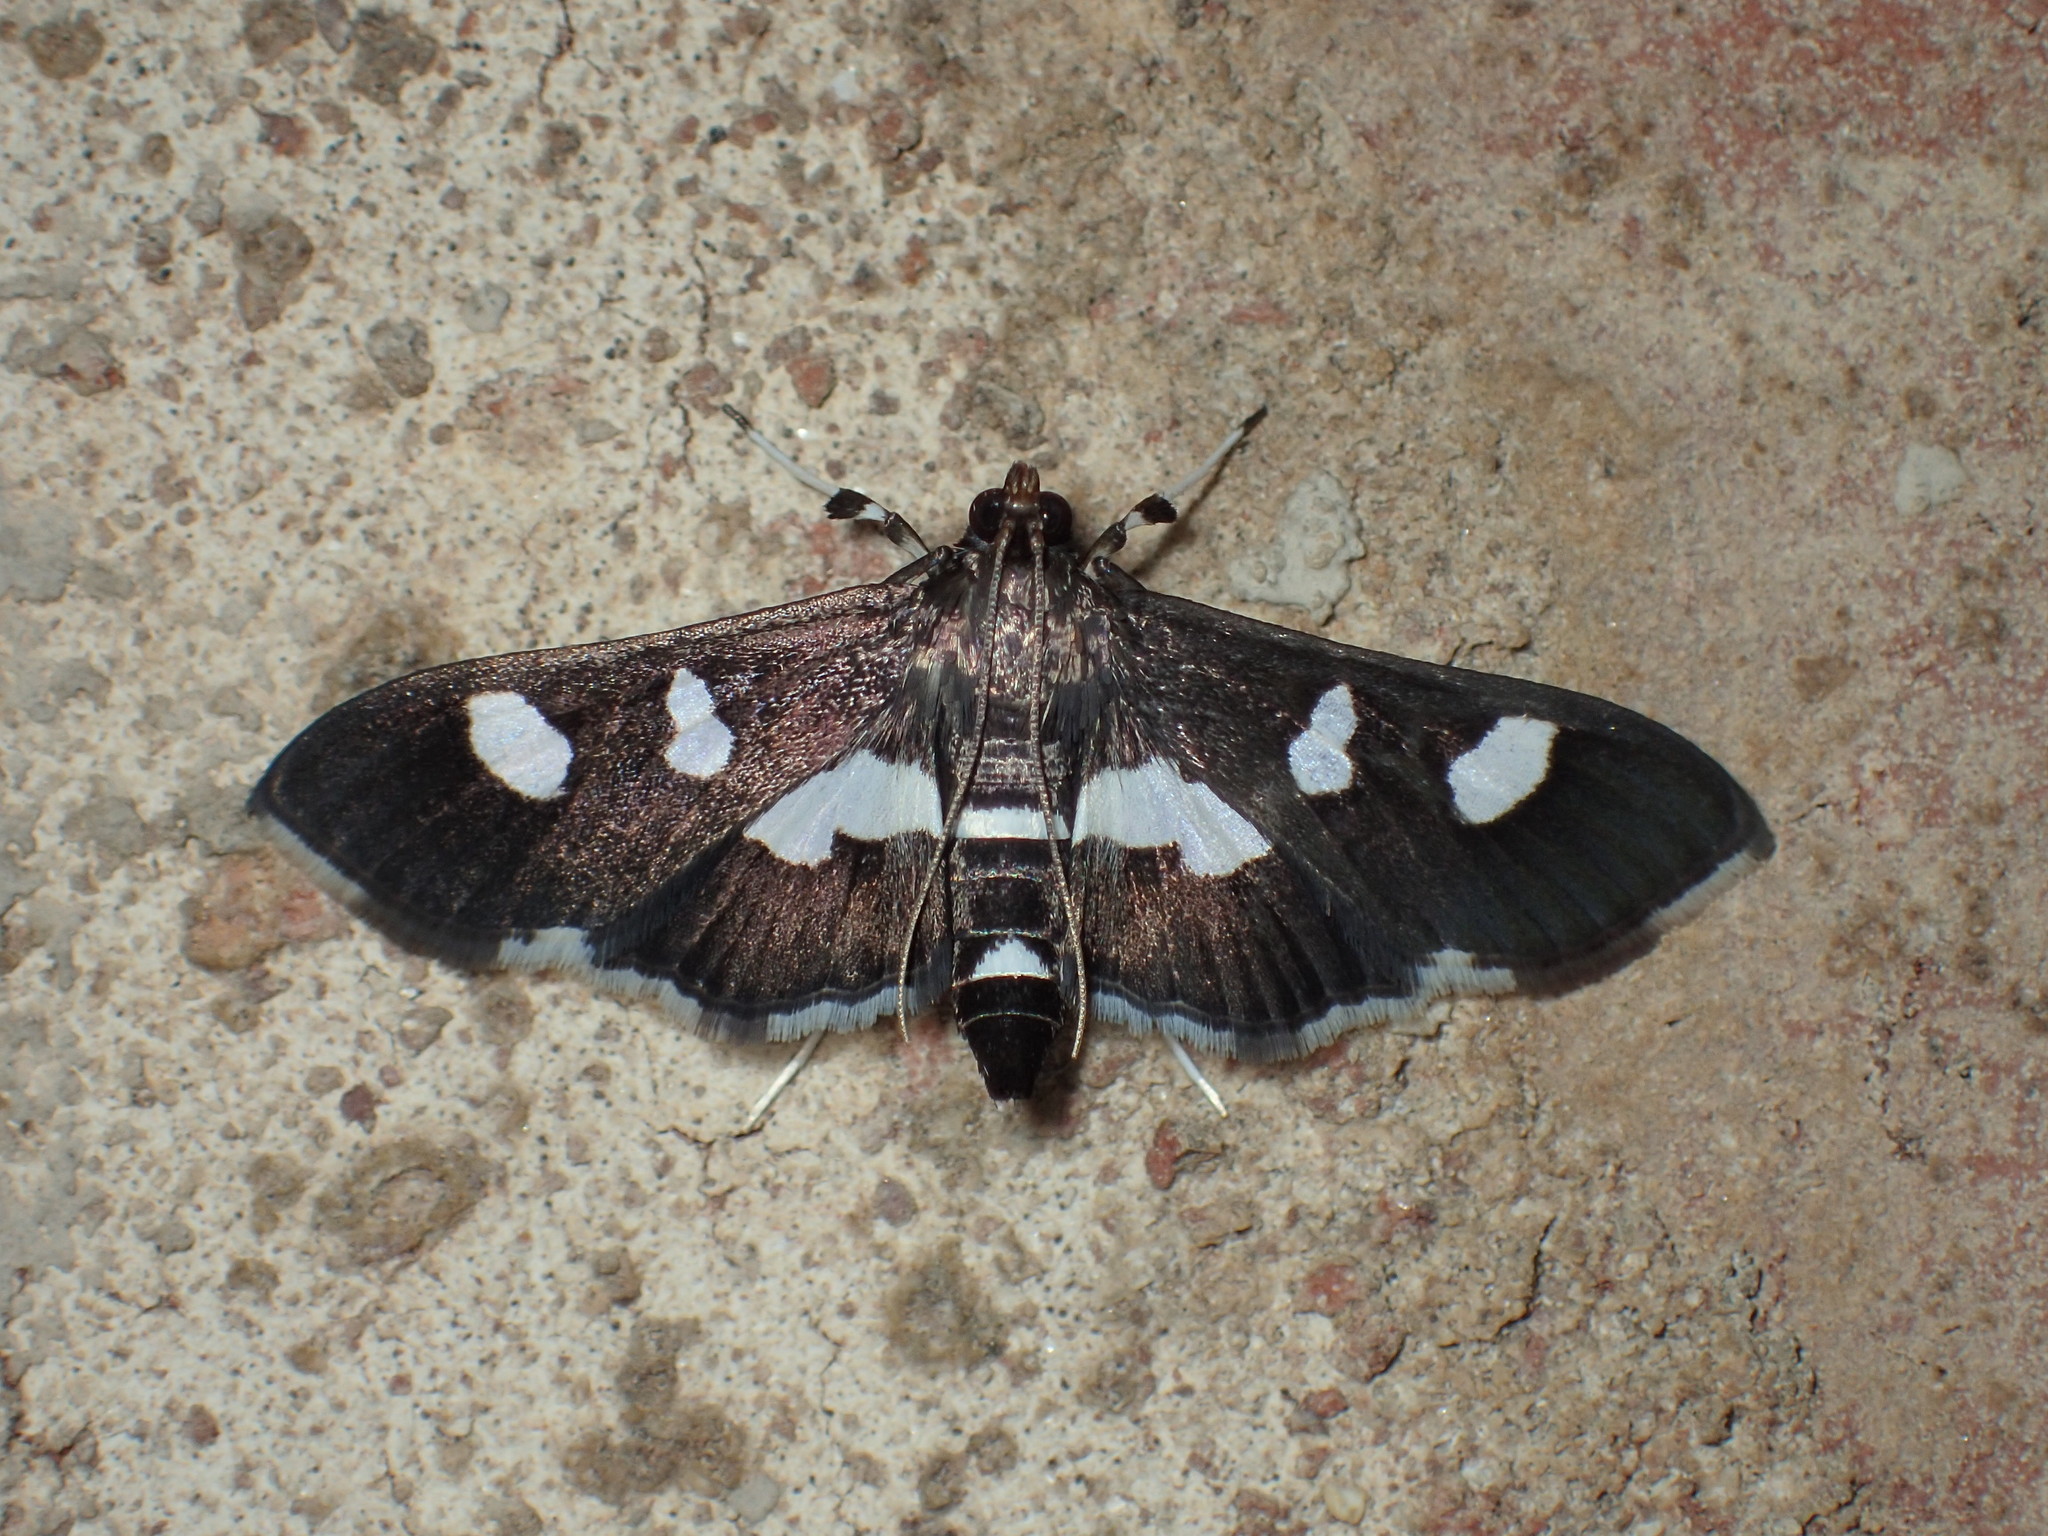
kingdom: Animalia
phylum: Arthropoda
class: Insecta
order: Lepidoptera
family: Crambidae
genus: Desmia
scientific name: Desmia
